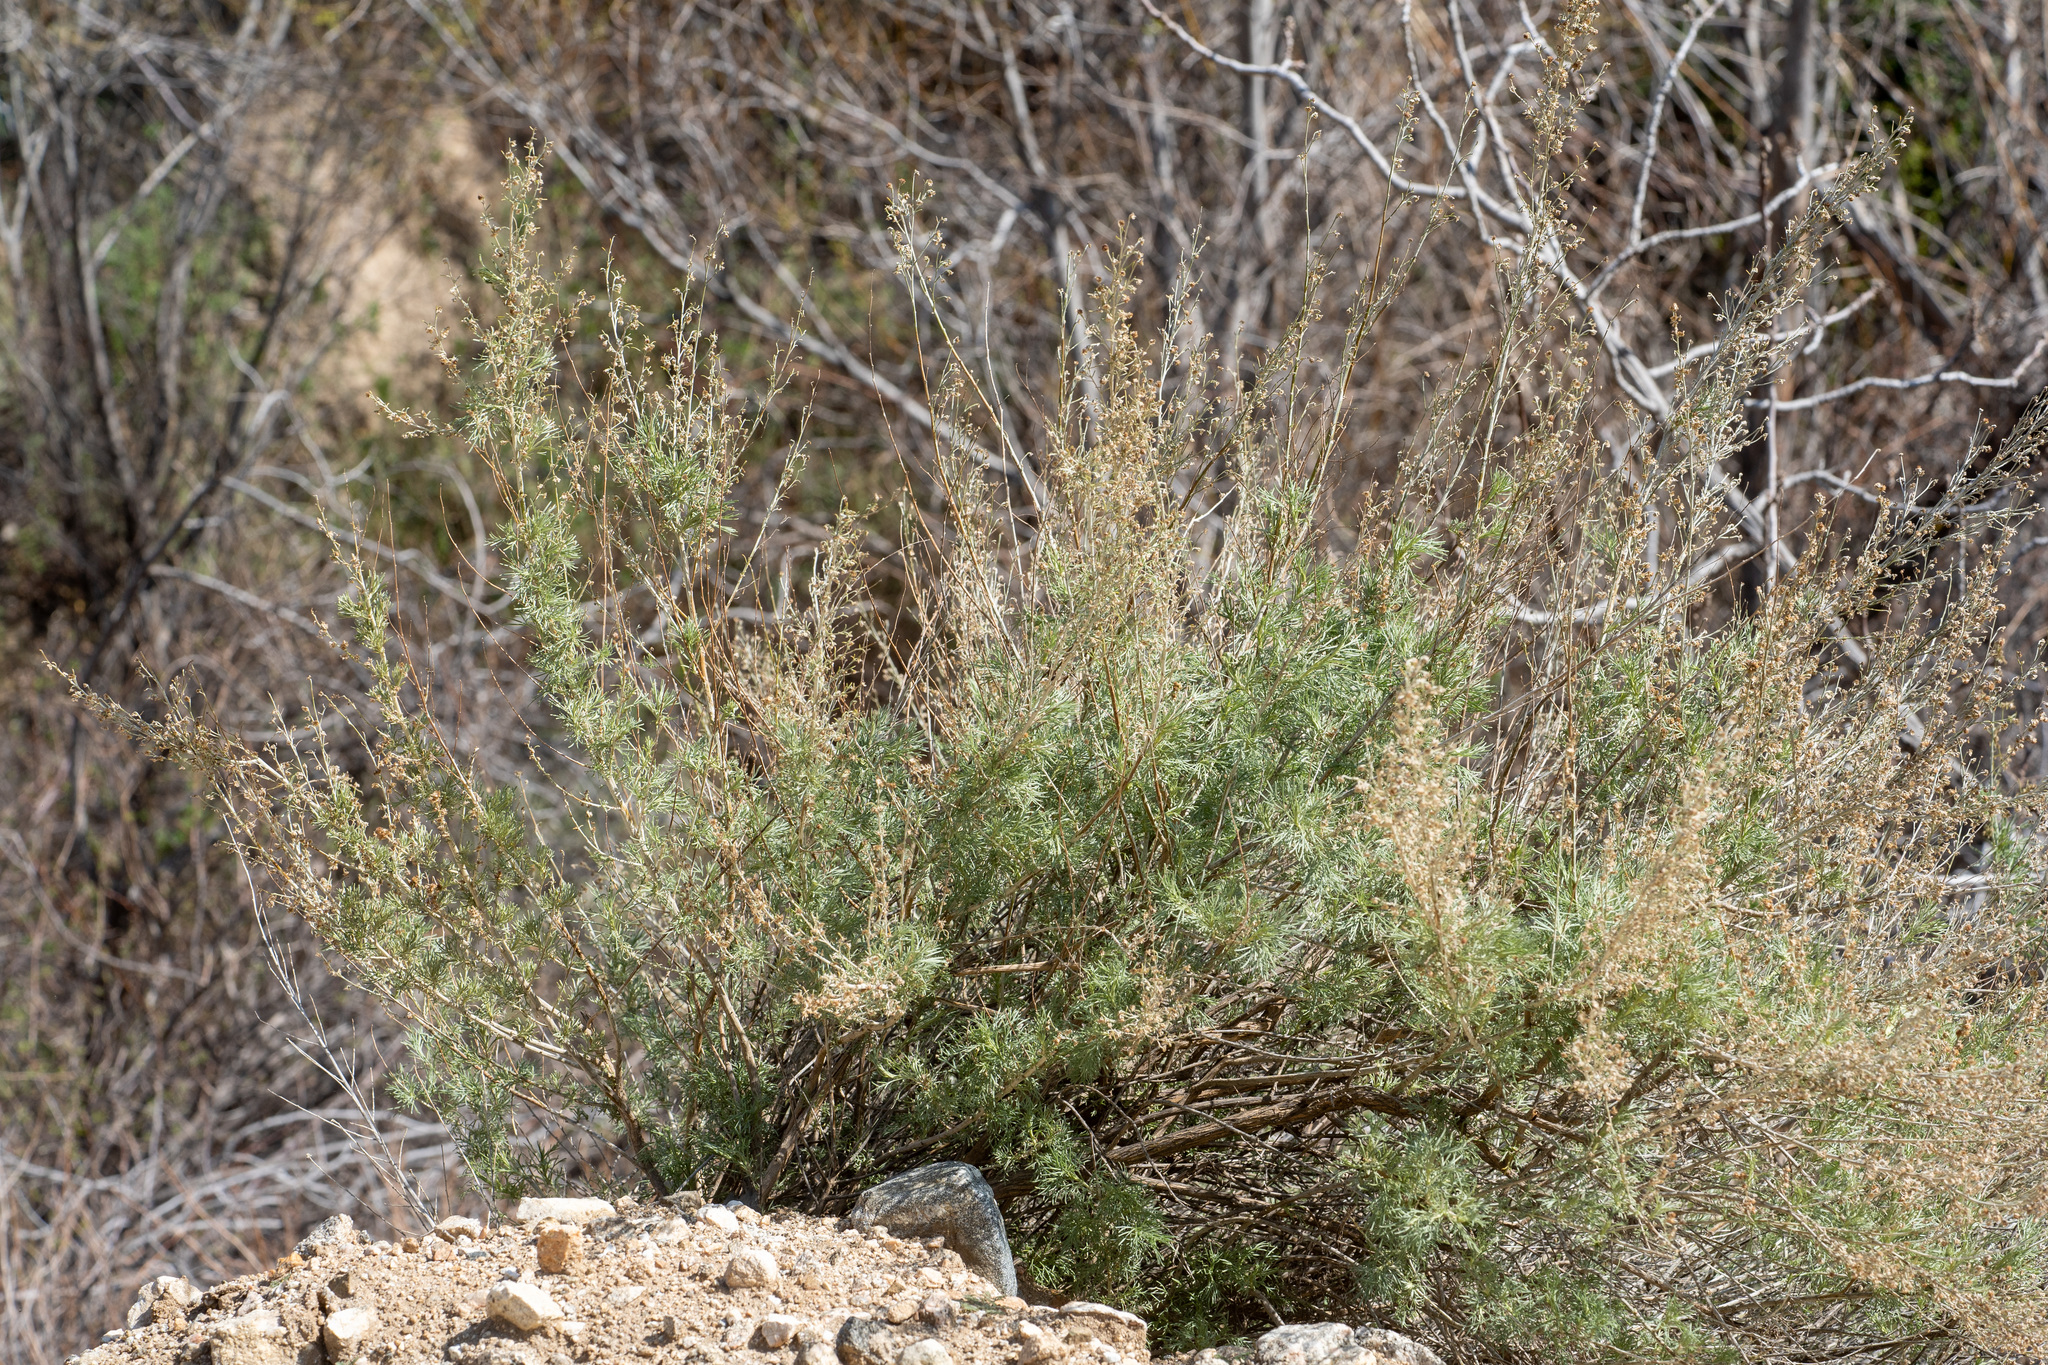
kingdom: Plantae
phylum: Tracheophyta
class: Magnoliopsida
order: Asterales
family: Asteraceae
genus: Artemisia
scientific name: Artemisia californica
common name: California sagebrush
